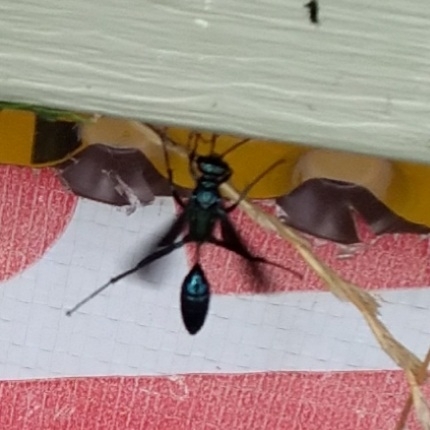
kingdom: Animalia
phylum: Arthropoda
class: Insecta
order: Hymenoptera
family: Sphecidae
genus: Chalybion
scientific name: Chalybion californicum
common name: Mud dauber
